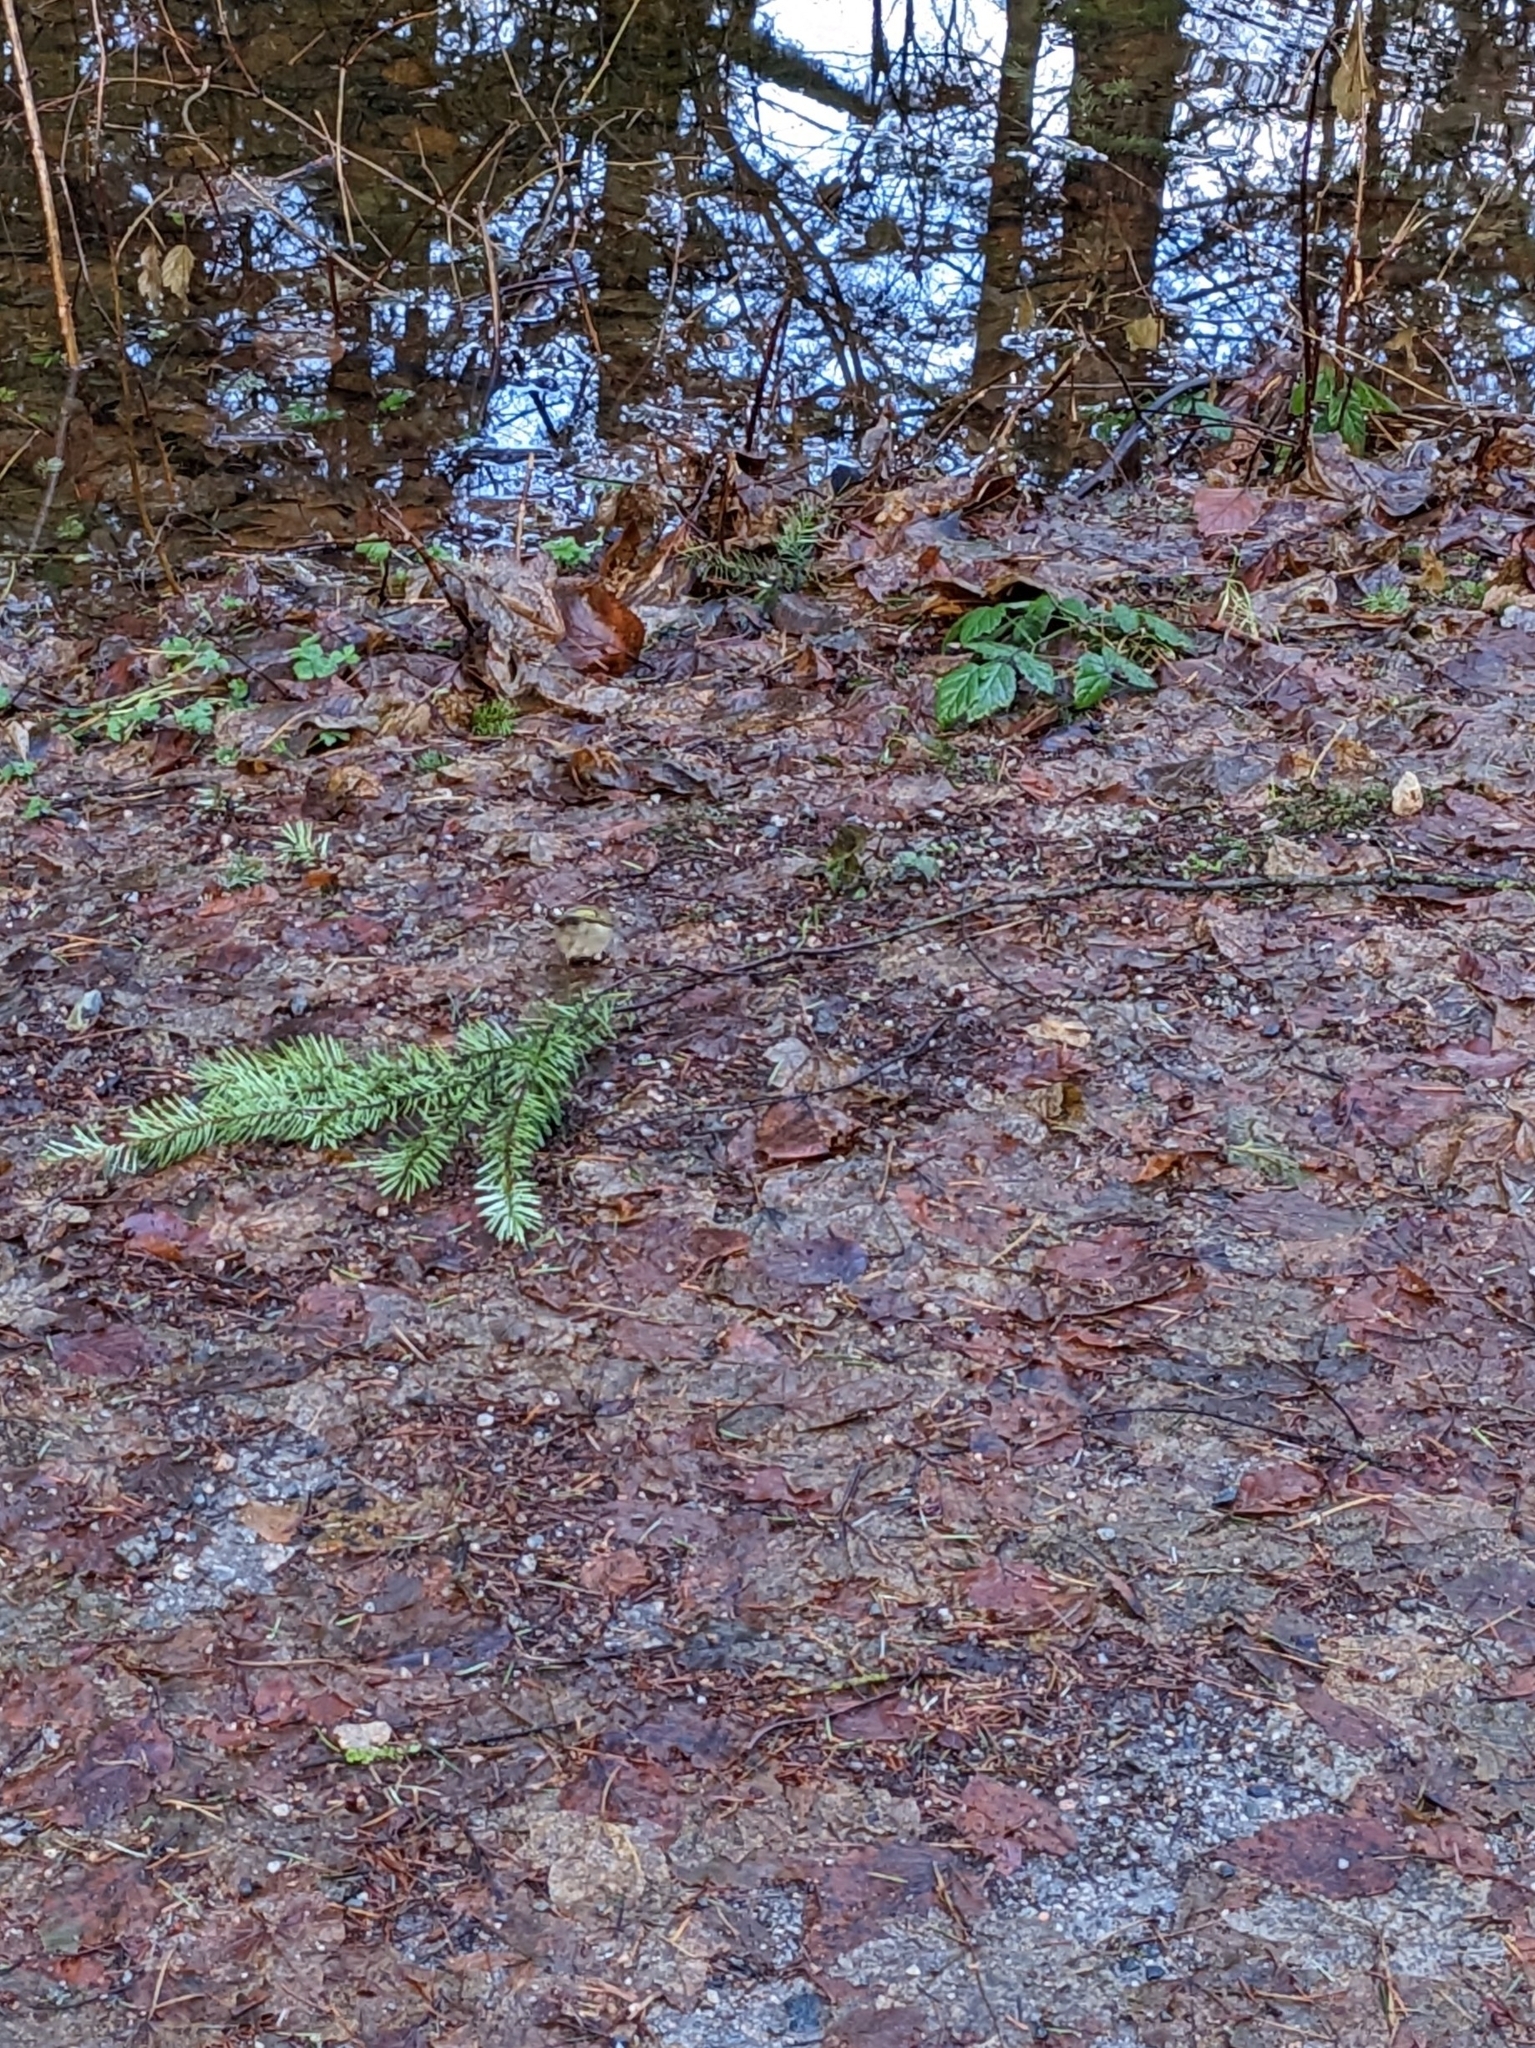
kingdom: Animalia
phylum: Chordata
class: Aves
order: Passeriformes
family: Regulidae
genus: Regulus
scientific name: Regulus satrapa
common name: Golden-crowned kinglet
